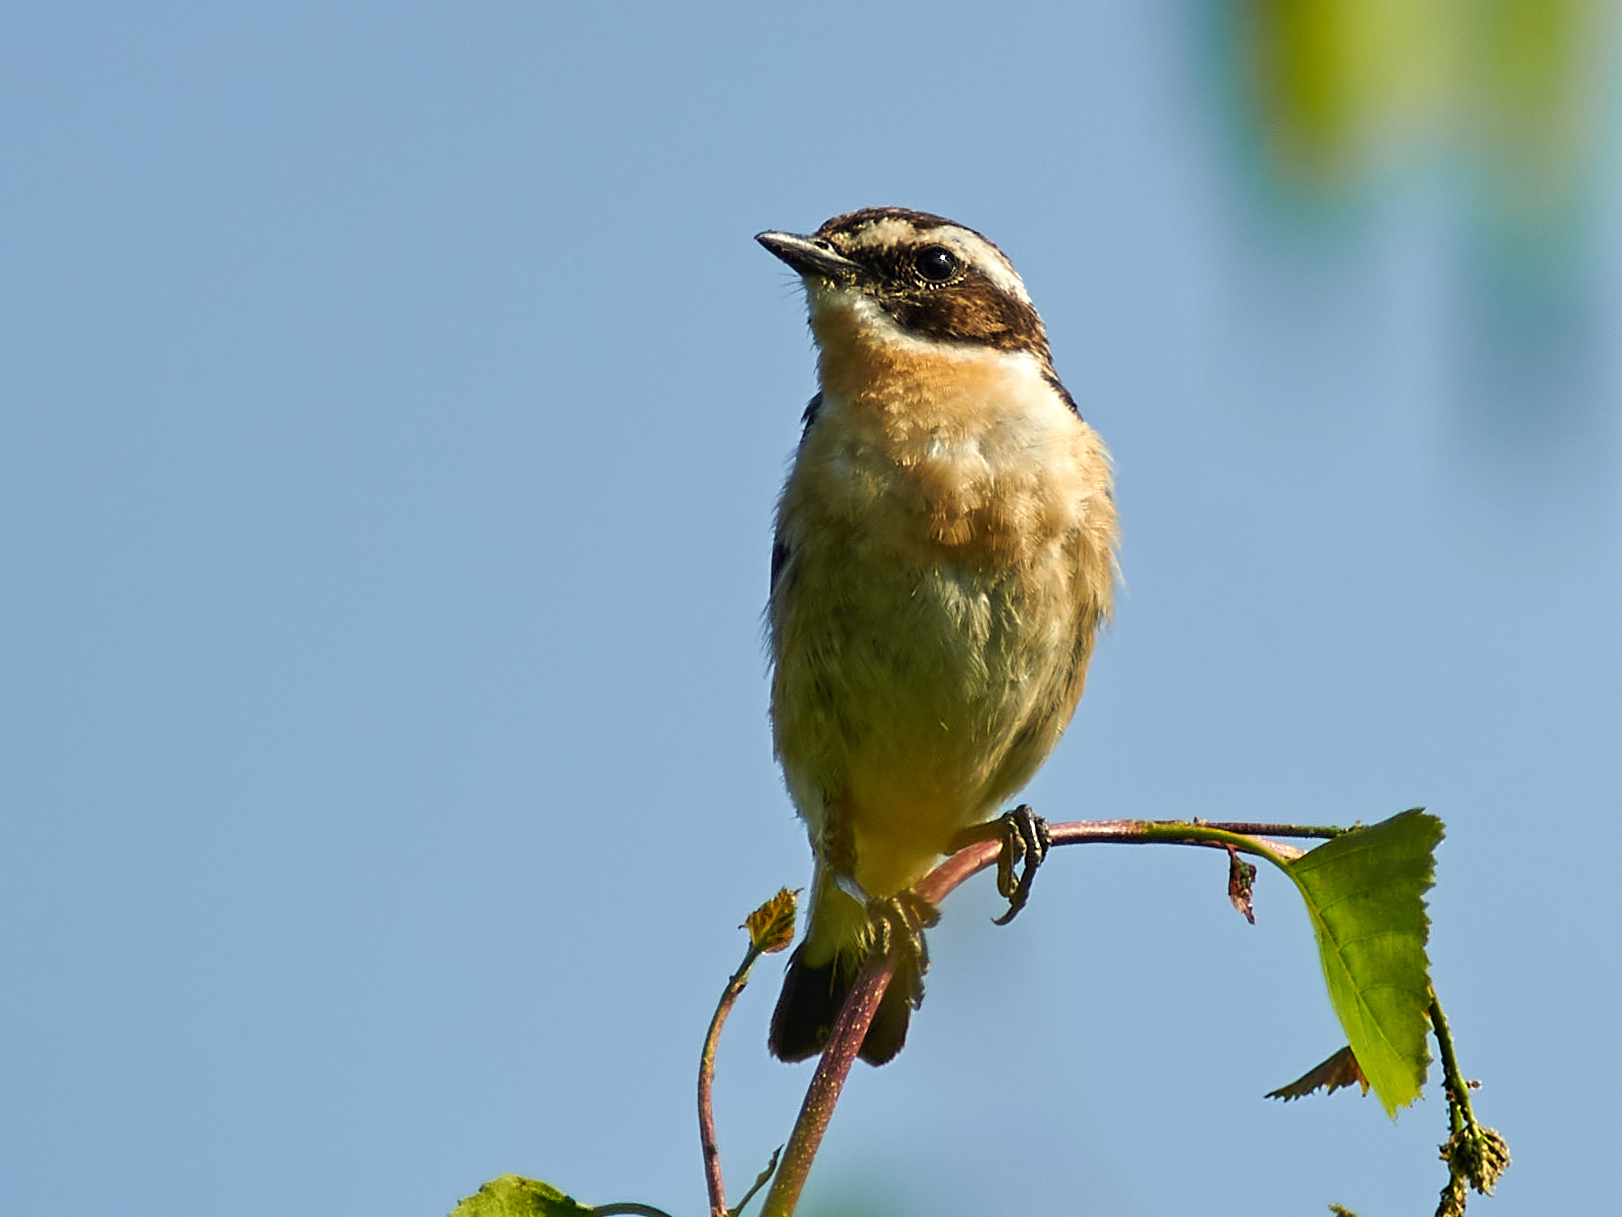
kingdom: Animalia
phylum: Chordata
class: Aves
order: Passeriformes
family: Muscicapidae
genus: Saxicola
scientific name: Saxicola rubetra
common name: Whinchat
